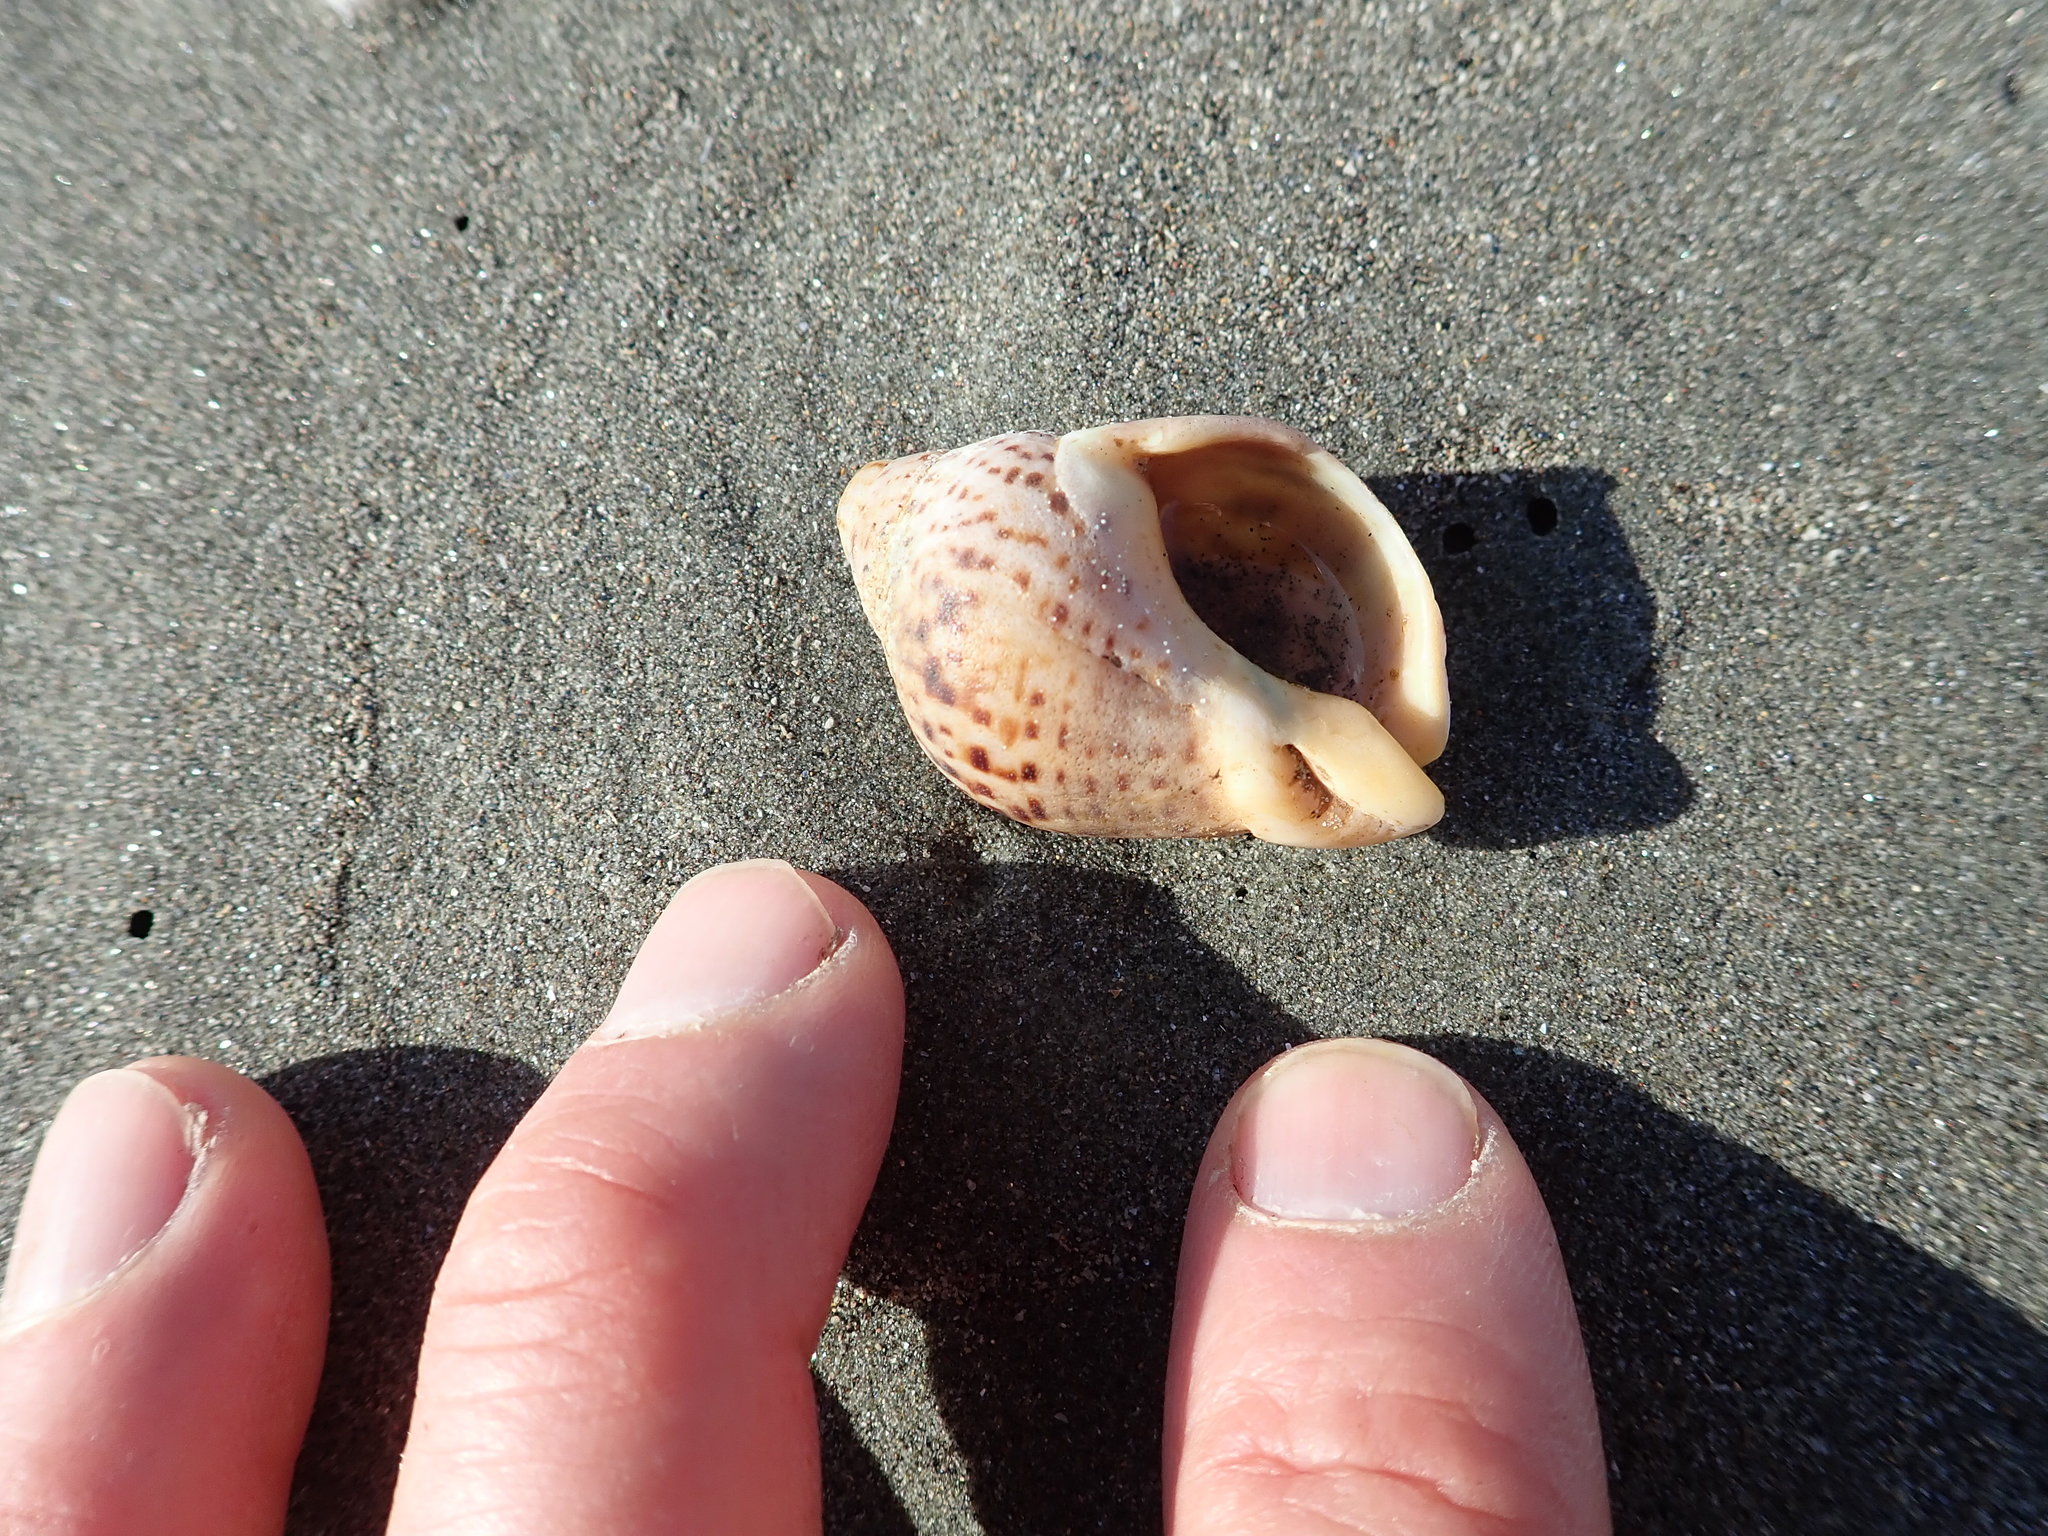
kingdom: Animalia
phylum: Mollusca
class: Gastropoda
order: Neogastropoda
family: Cominellidae
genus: Cominella
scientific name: Cominella adspersa
